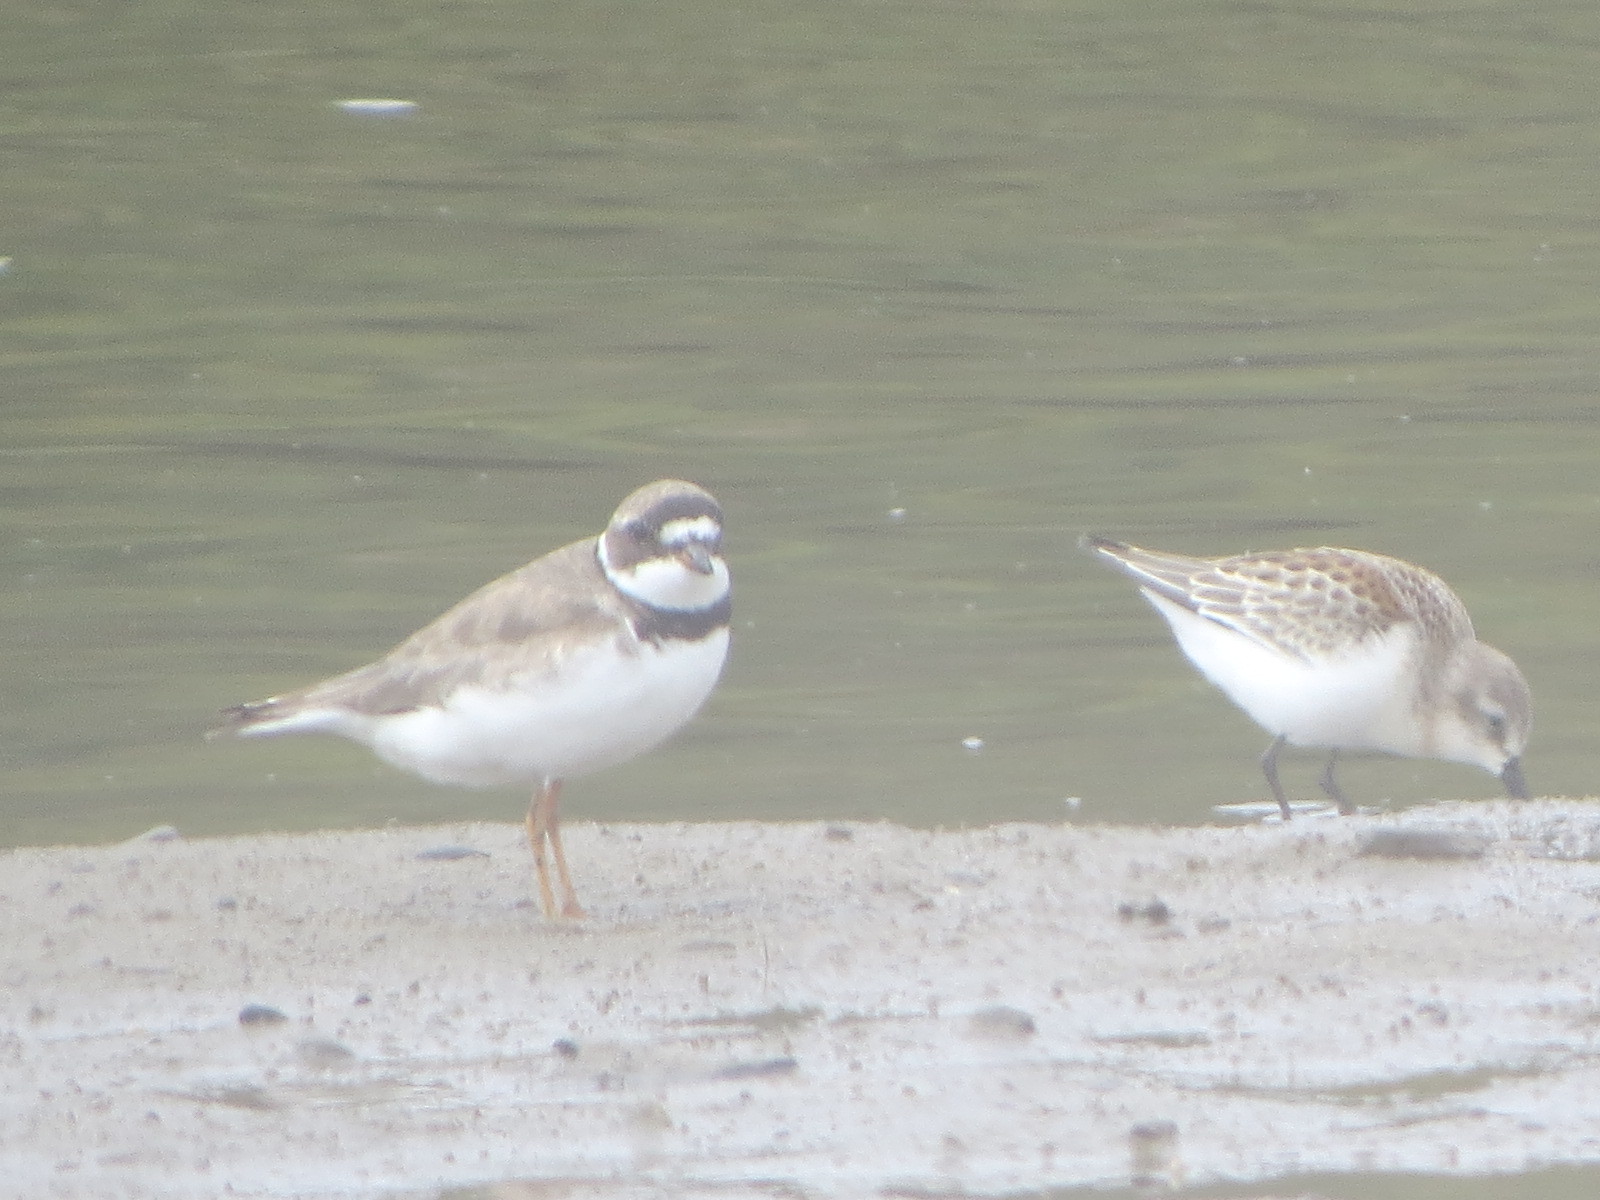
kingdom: Animalia
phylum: Chordata
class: Aves
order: Charadriiformes
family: Charadriidae
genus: Charadrius
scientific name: Charadrius semipalmatus
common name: Semipalmated plover
